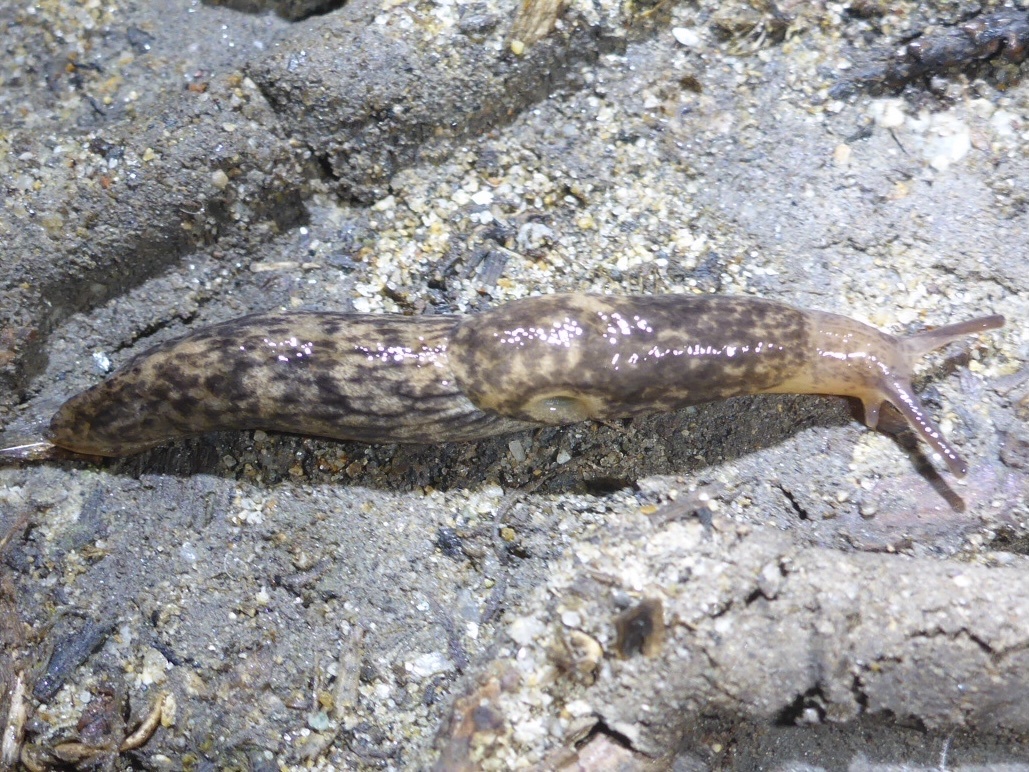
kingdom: Animalia
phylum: Mollusca
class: Gastropoda
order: Stylommatophora
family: Agriolimacidae
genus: Deroceras
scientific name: Deroceras reticulatum
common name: Gray field slug
